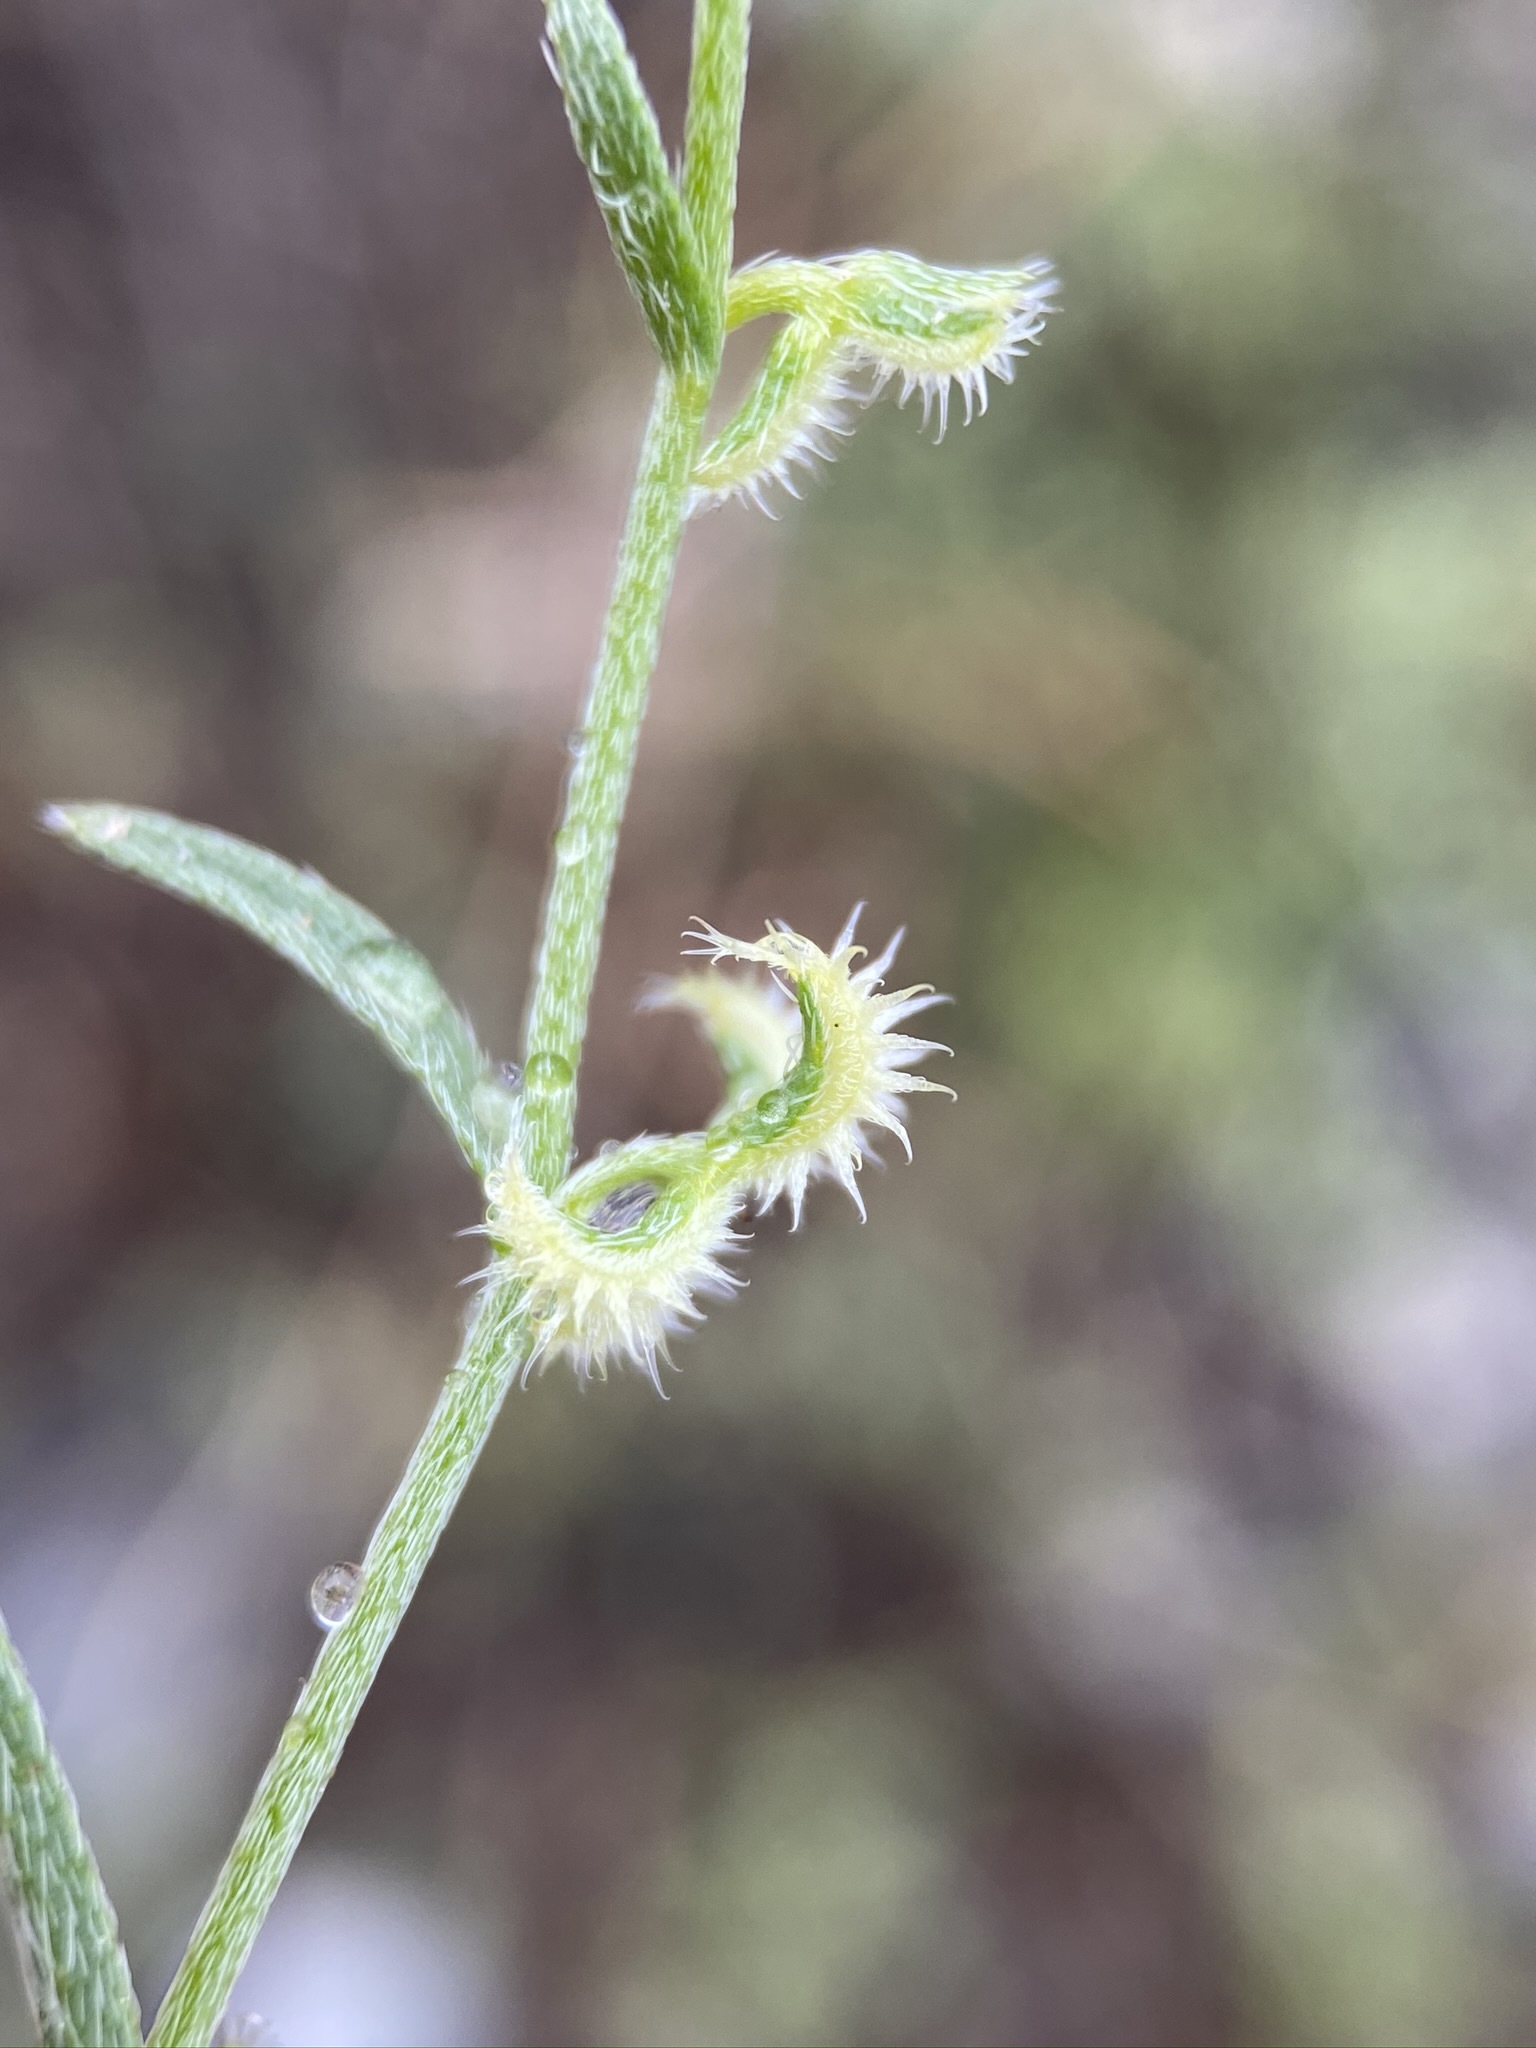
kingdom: Plantae
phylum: Tracheophyta
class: Magnoliopsida
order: Boraginales
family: Boraginaceae
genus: Pectocarya
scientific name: Pectocarya recurvata
